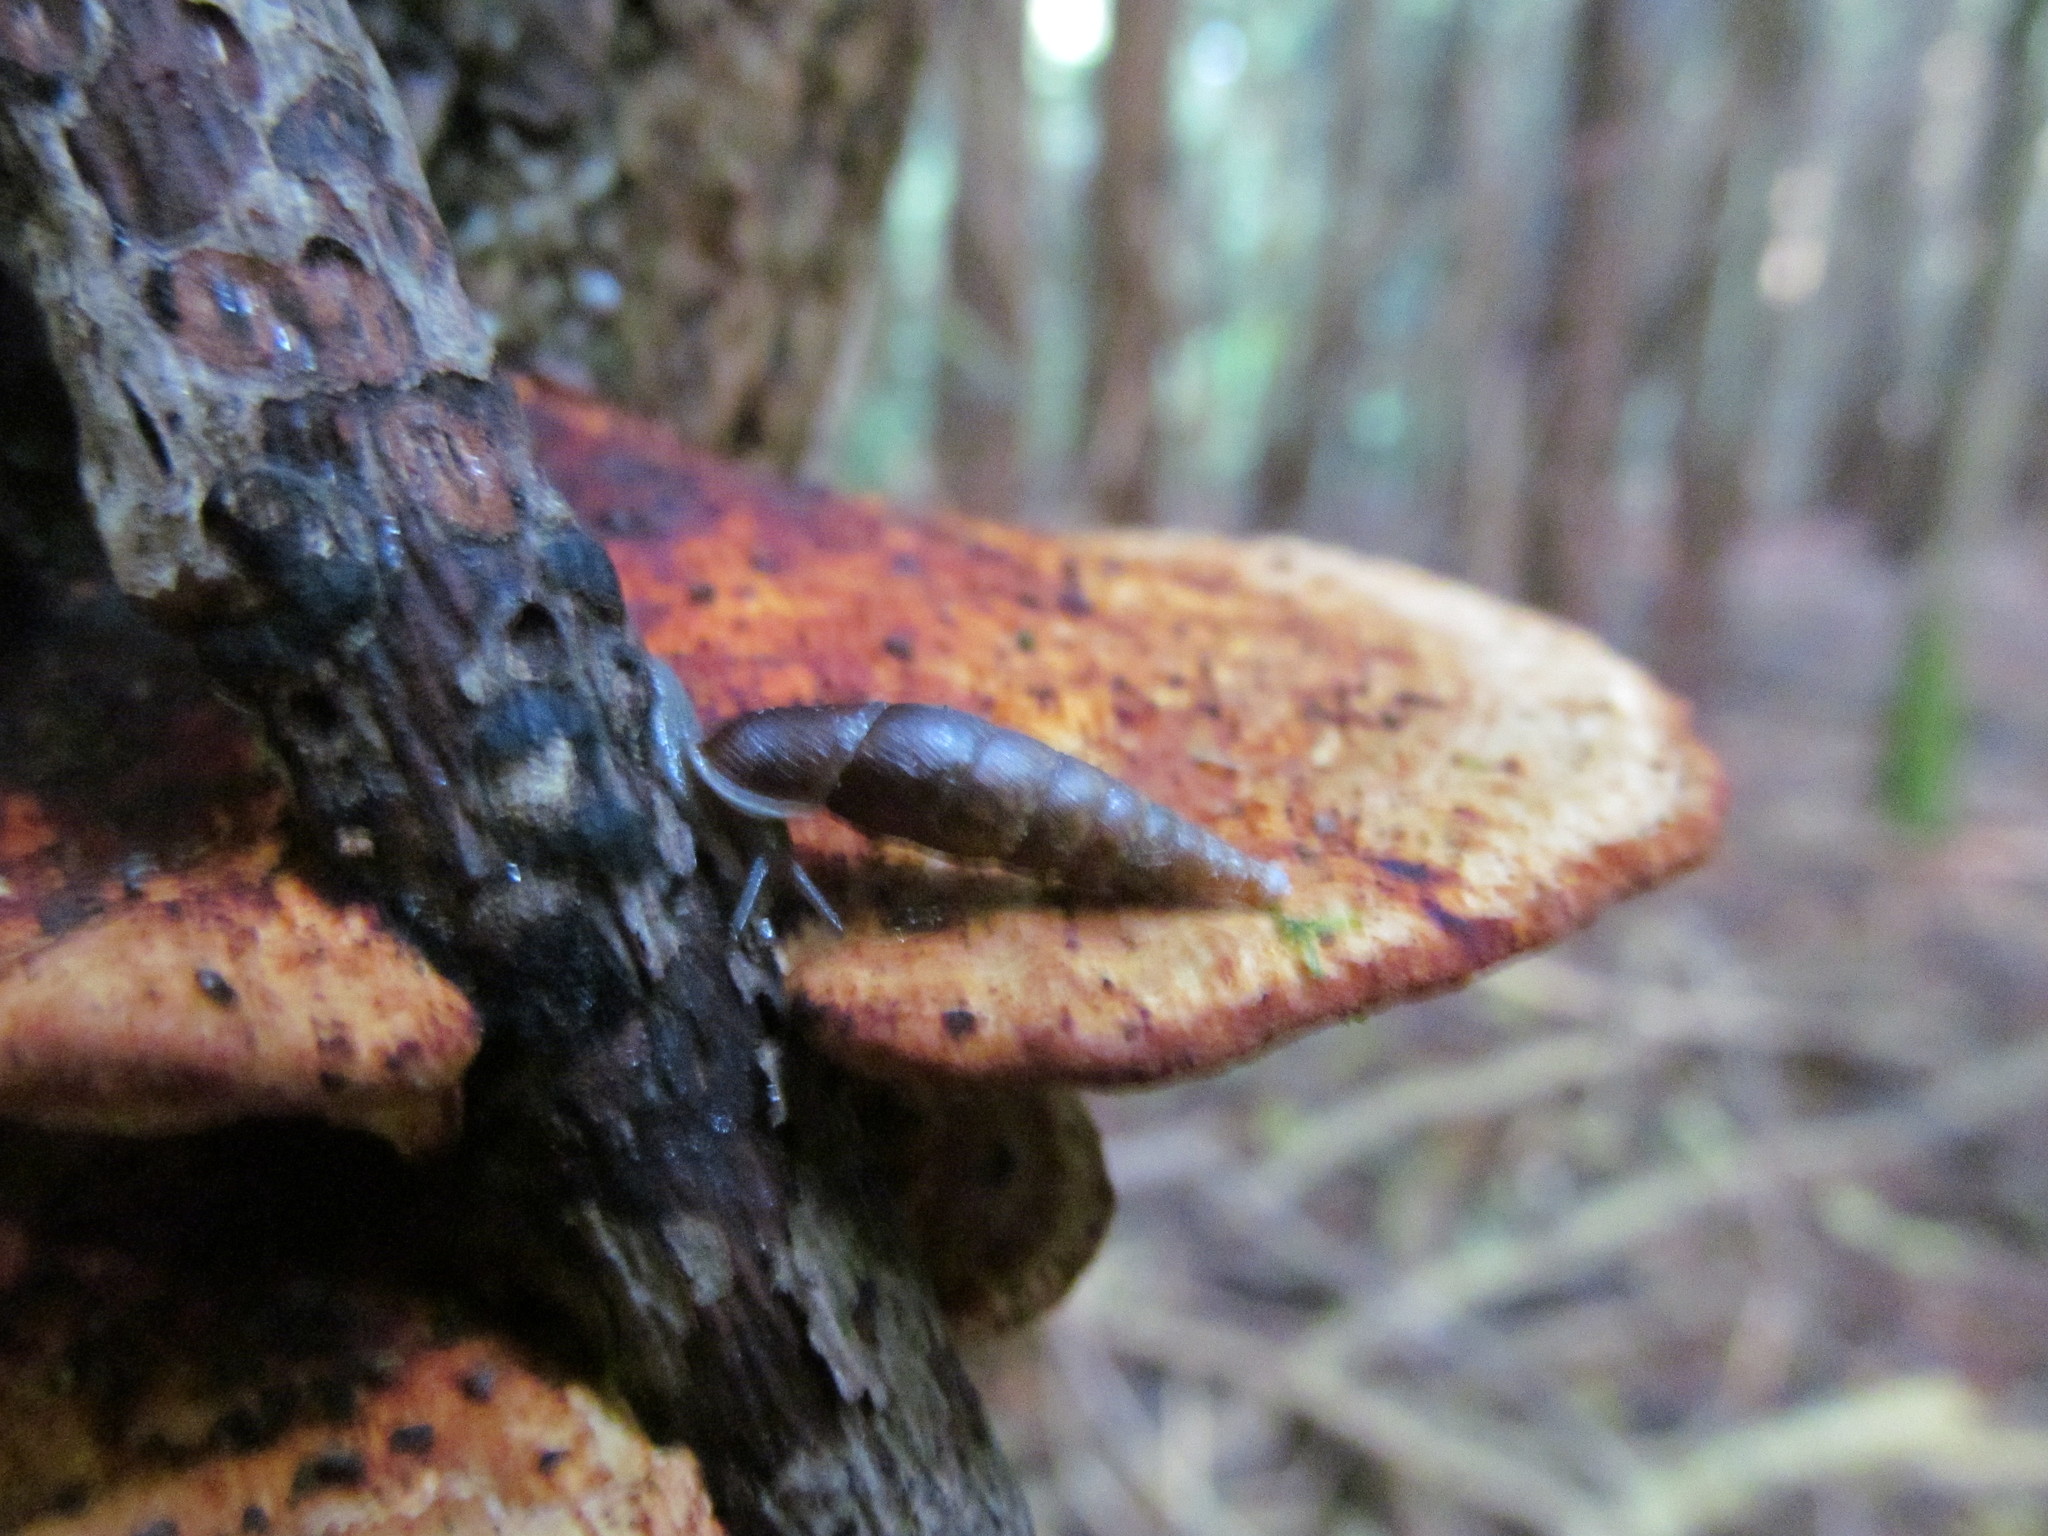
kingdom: Fungi
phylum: Basidiomycota
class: Agaricomycetes
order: Polyporales
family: Polyporaceae
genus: Daedaleopsis
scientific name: Daedaleopsis confragosa
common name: Blushing bracket
